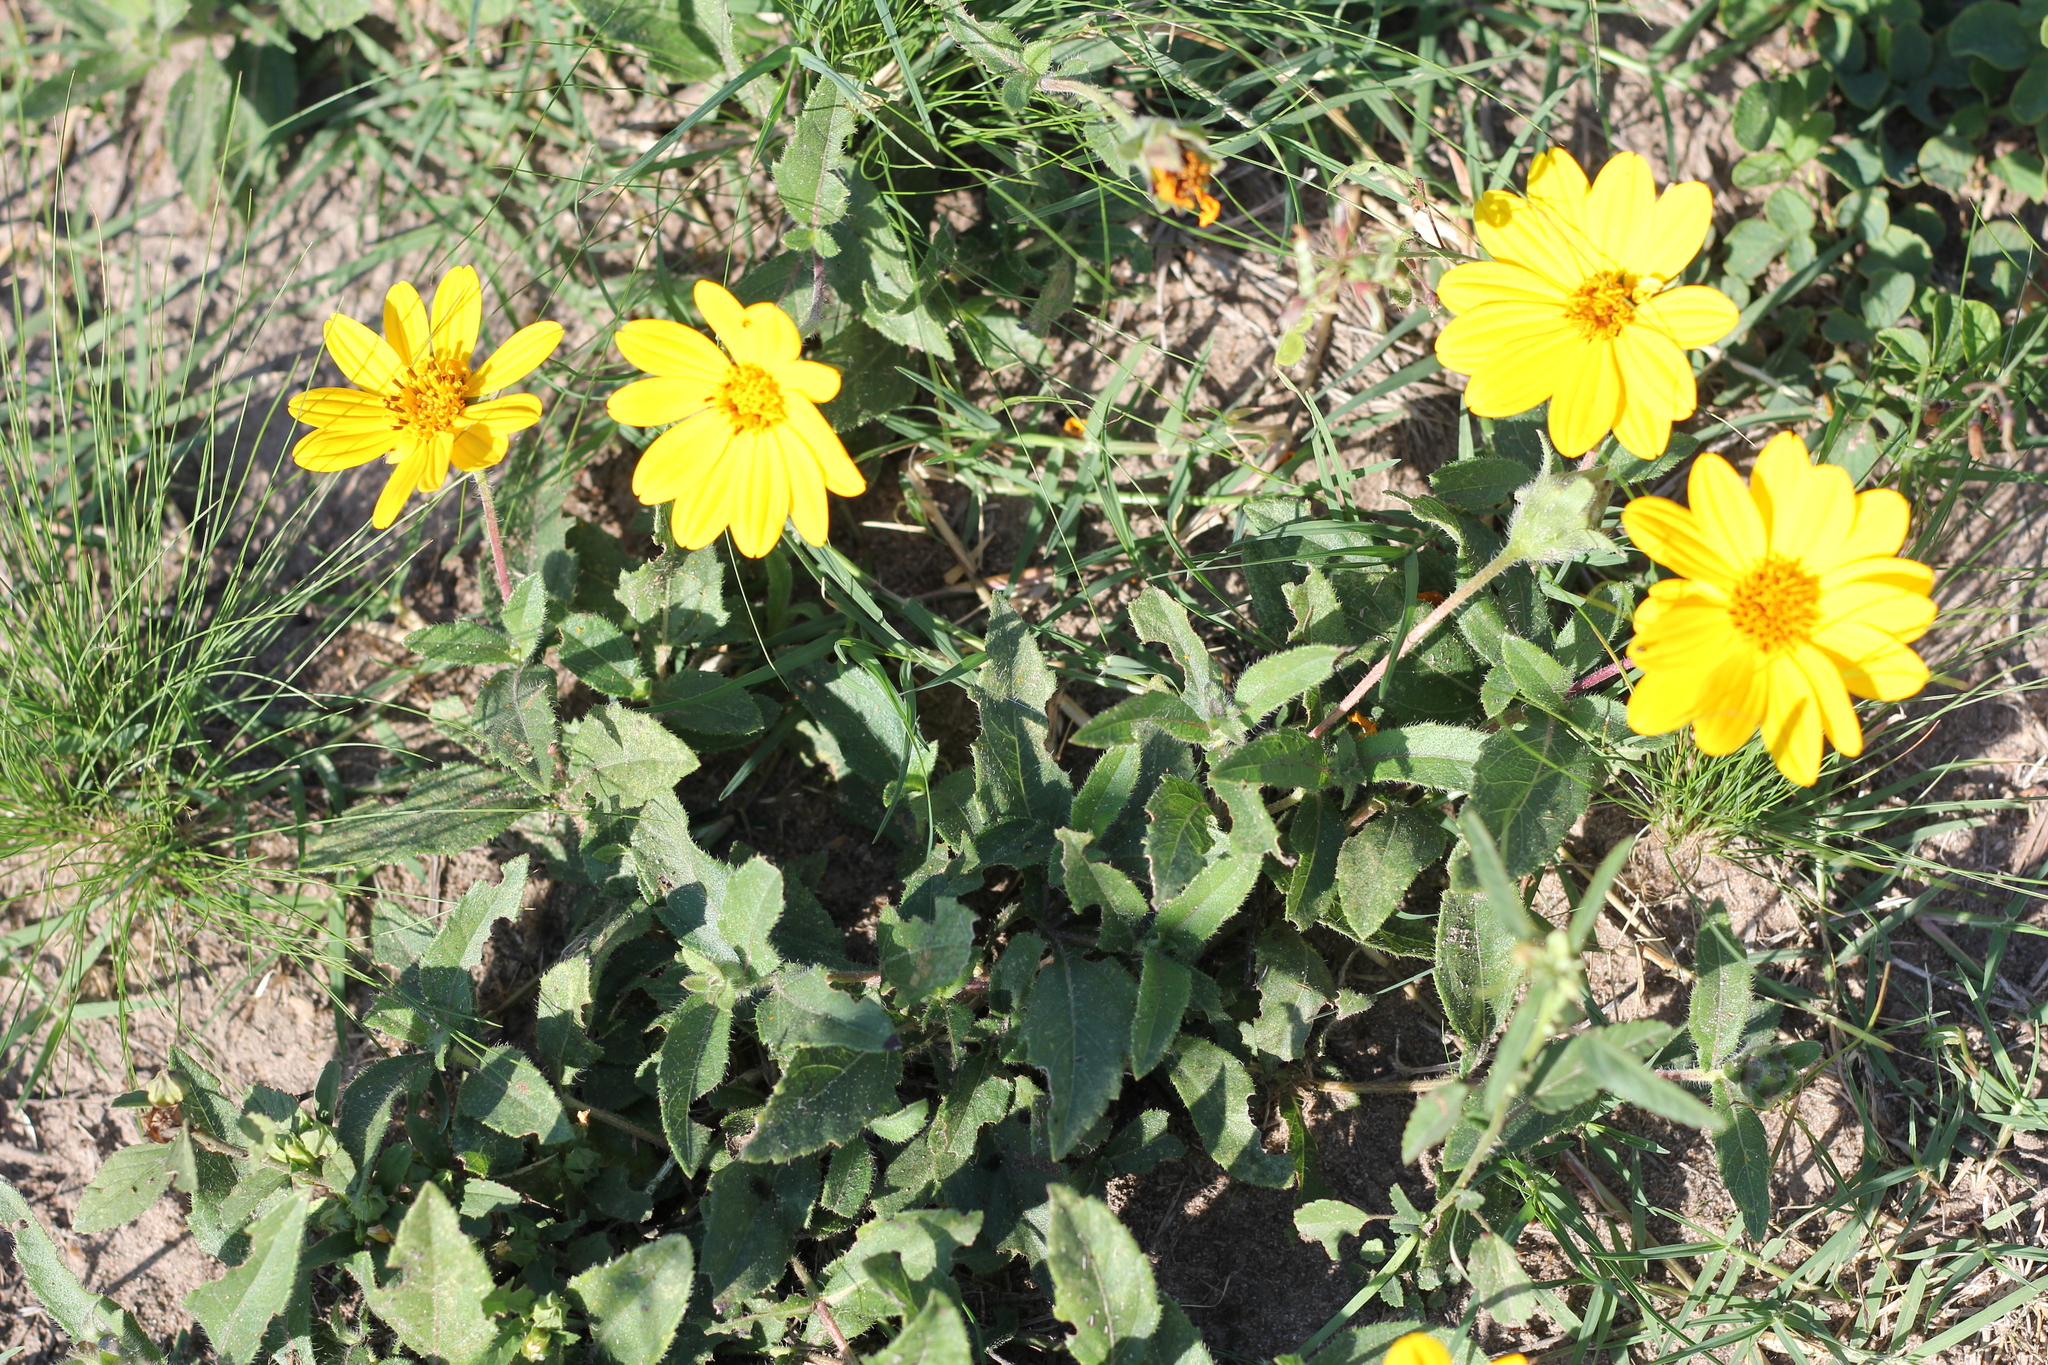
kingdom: Plantae
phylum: Tracheophyta
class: Magnoliopsida
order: Asterales
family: Asteraceae
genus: Wedelia
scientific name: Wedelia montevidensis
